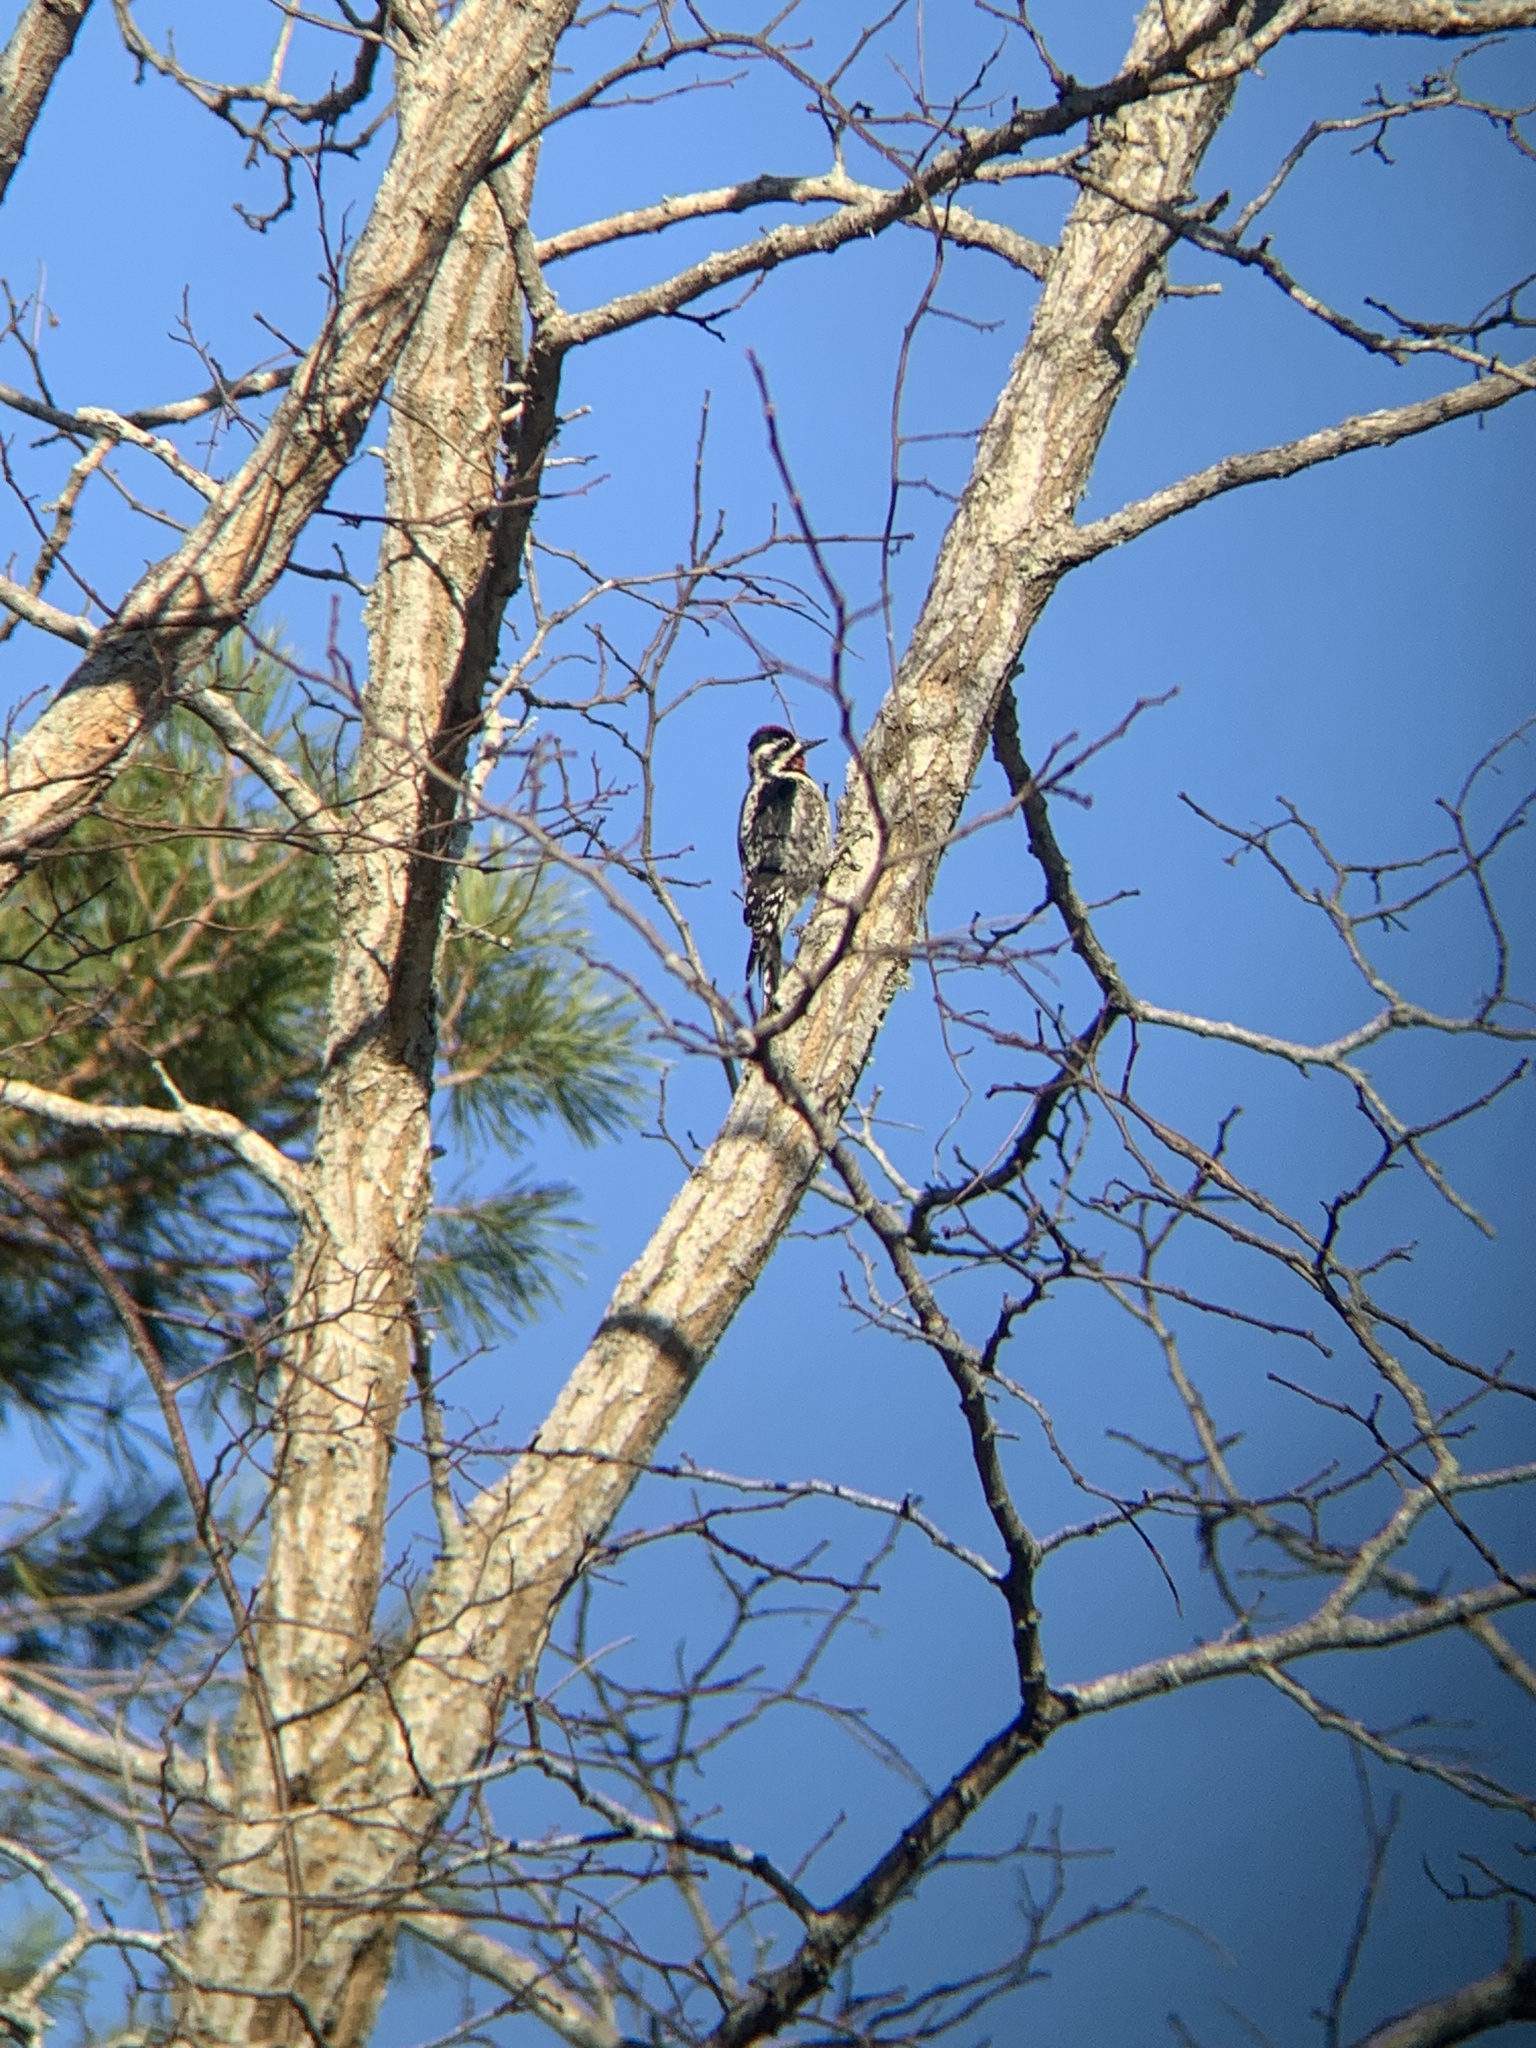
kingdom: Animalia
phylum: Chordata
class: Aves
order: Piciformes
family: Picidae
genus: Sphyrapicus
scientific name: Sphyrapicus varius
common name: Yellow-bellied sapsucker
